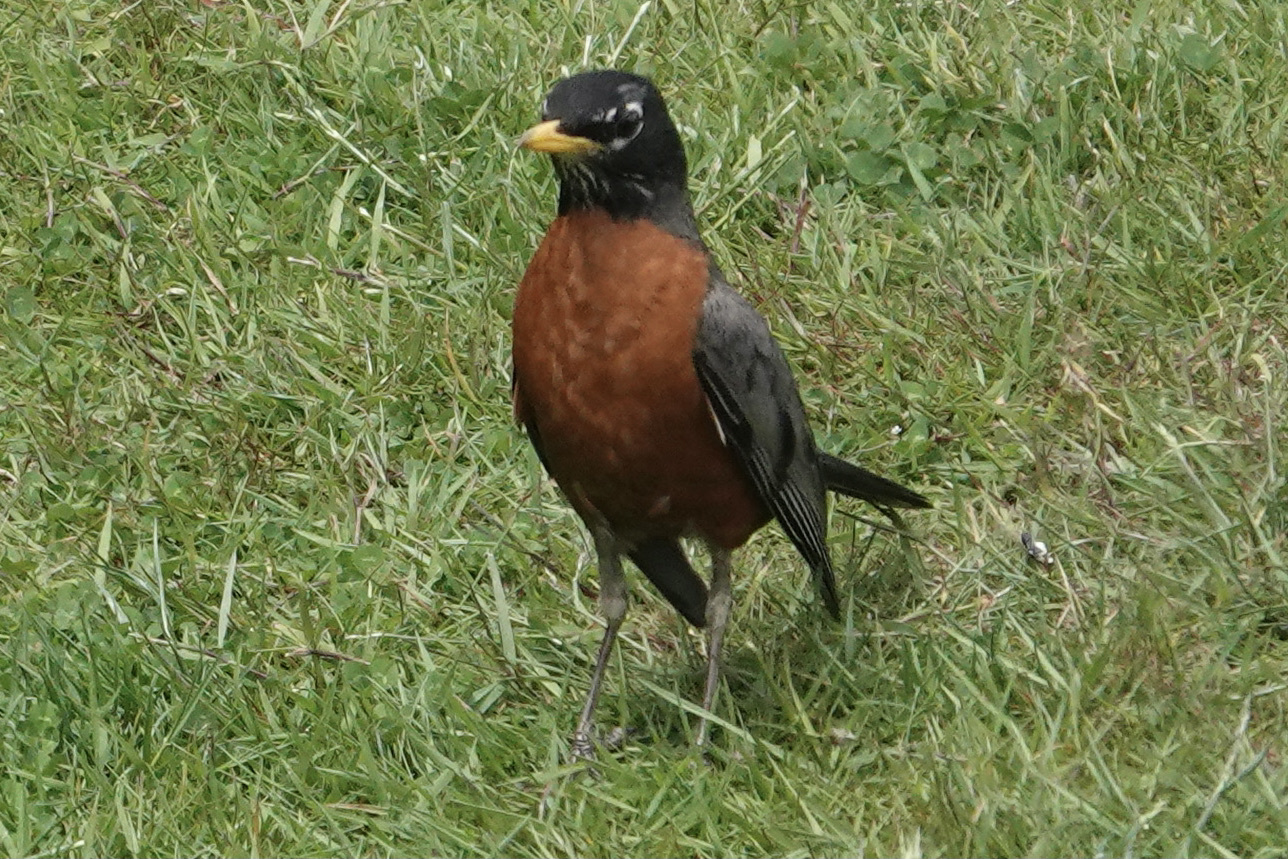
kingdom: Animalia
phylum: Chordata
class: Aves
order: Passeriformes
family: Turdidae
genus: Turdus
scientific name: Turdus migratorius
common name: American robin
